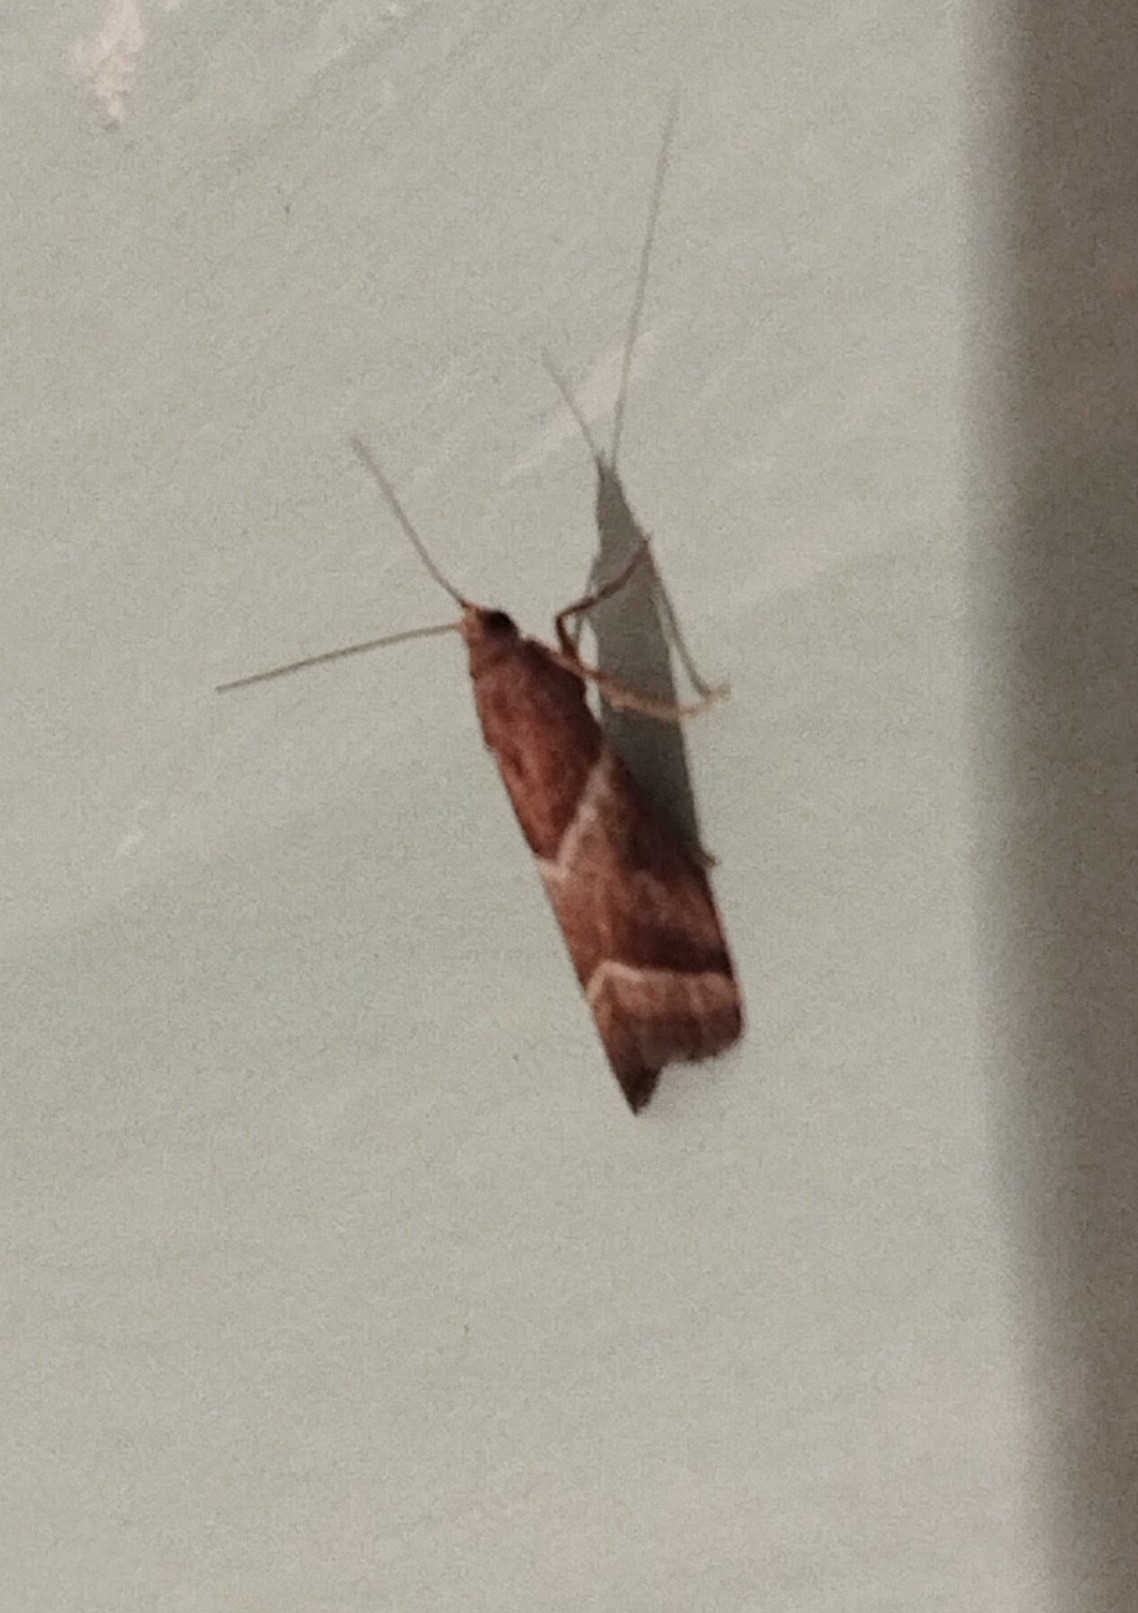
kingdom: Animalia
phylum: Arthropoda
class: Insecta
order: Lepidoptera
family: Pyralidae
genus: Nyctegretis
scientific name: Nyctegretis lineana
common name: Agate knot-horn
